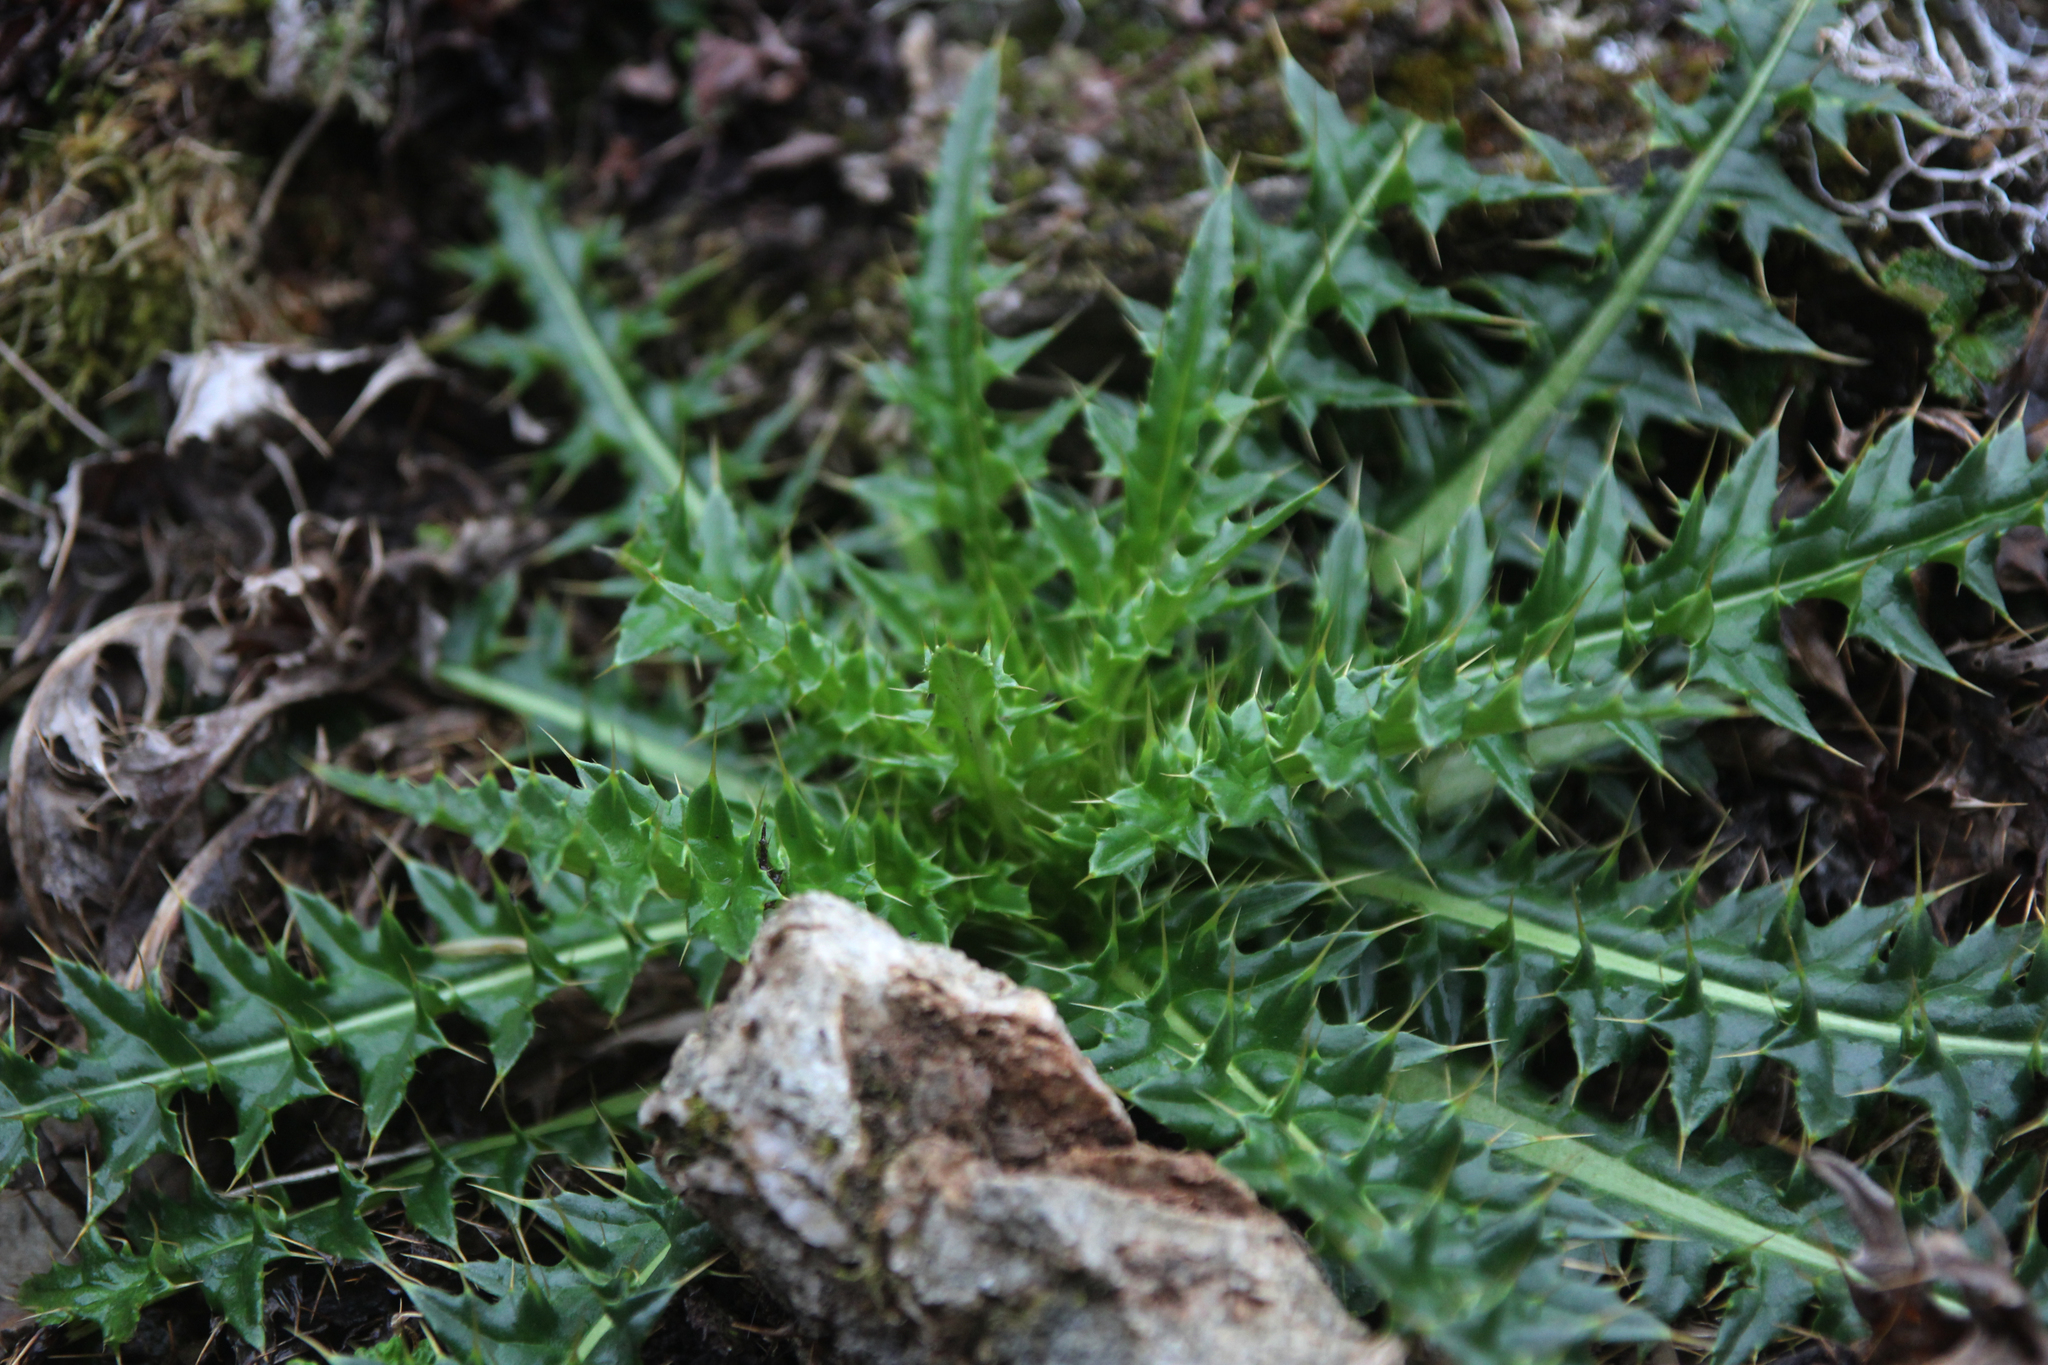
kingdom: Plantae
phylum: Tracheophyta
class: Magnoliopsida
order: Asterales
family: Asteraceae
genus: Cirsium
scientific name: Cirsium arisanense
